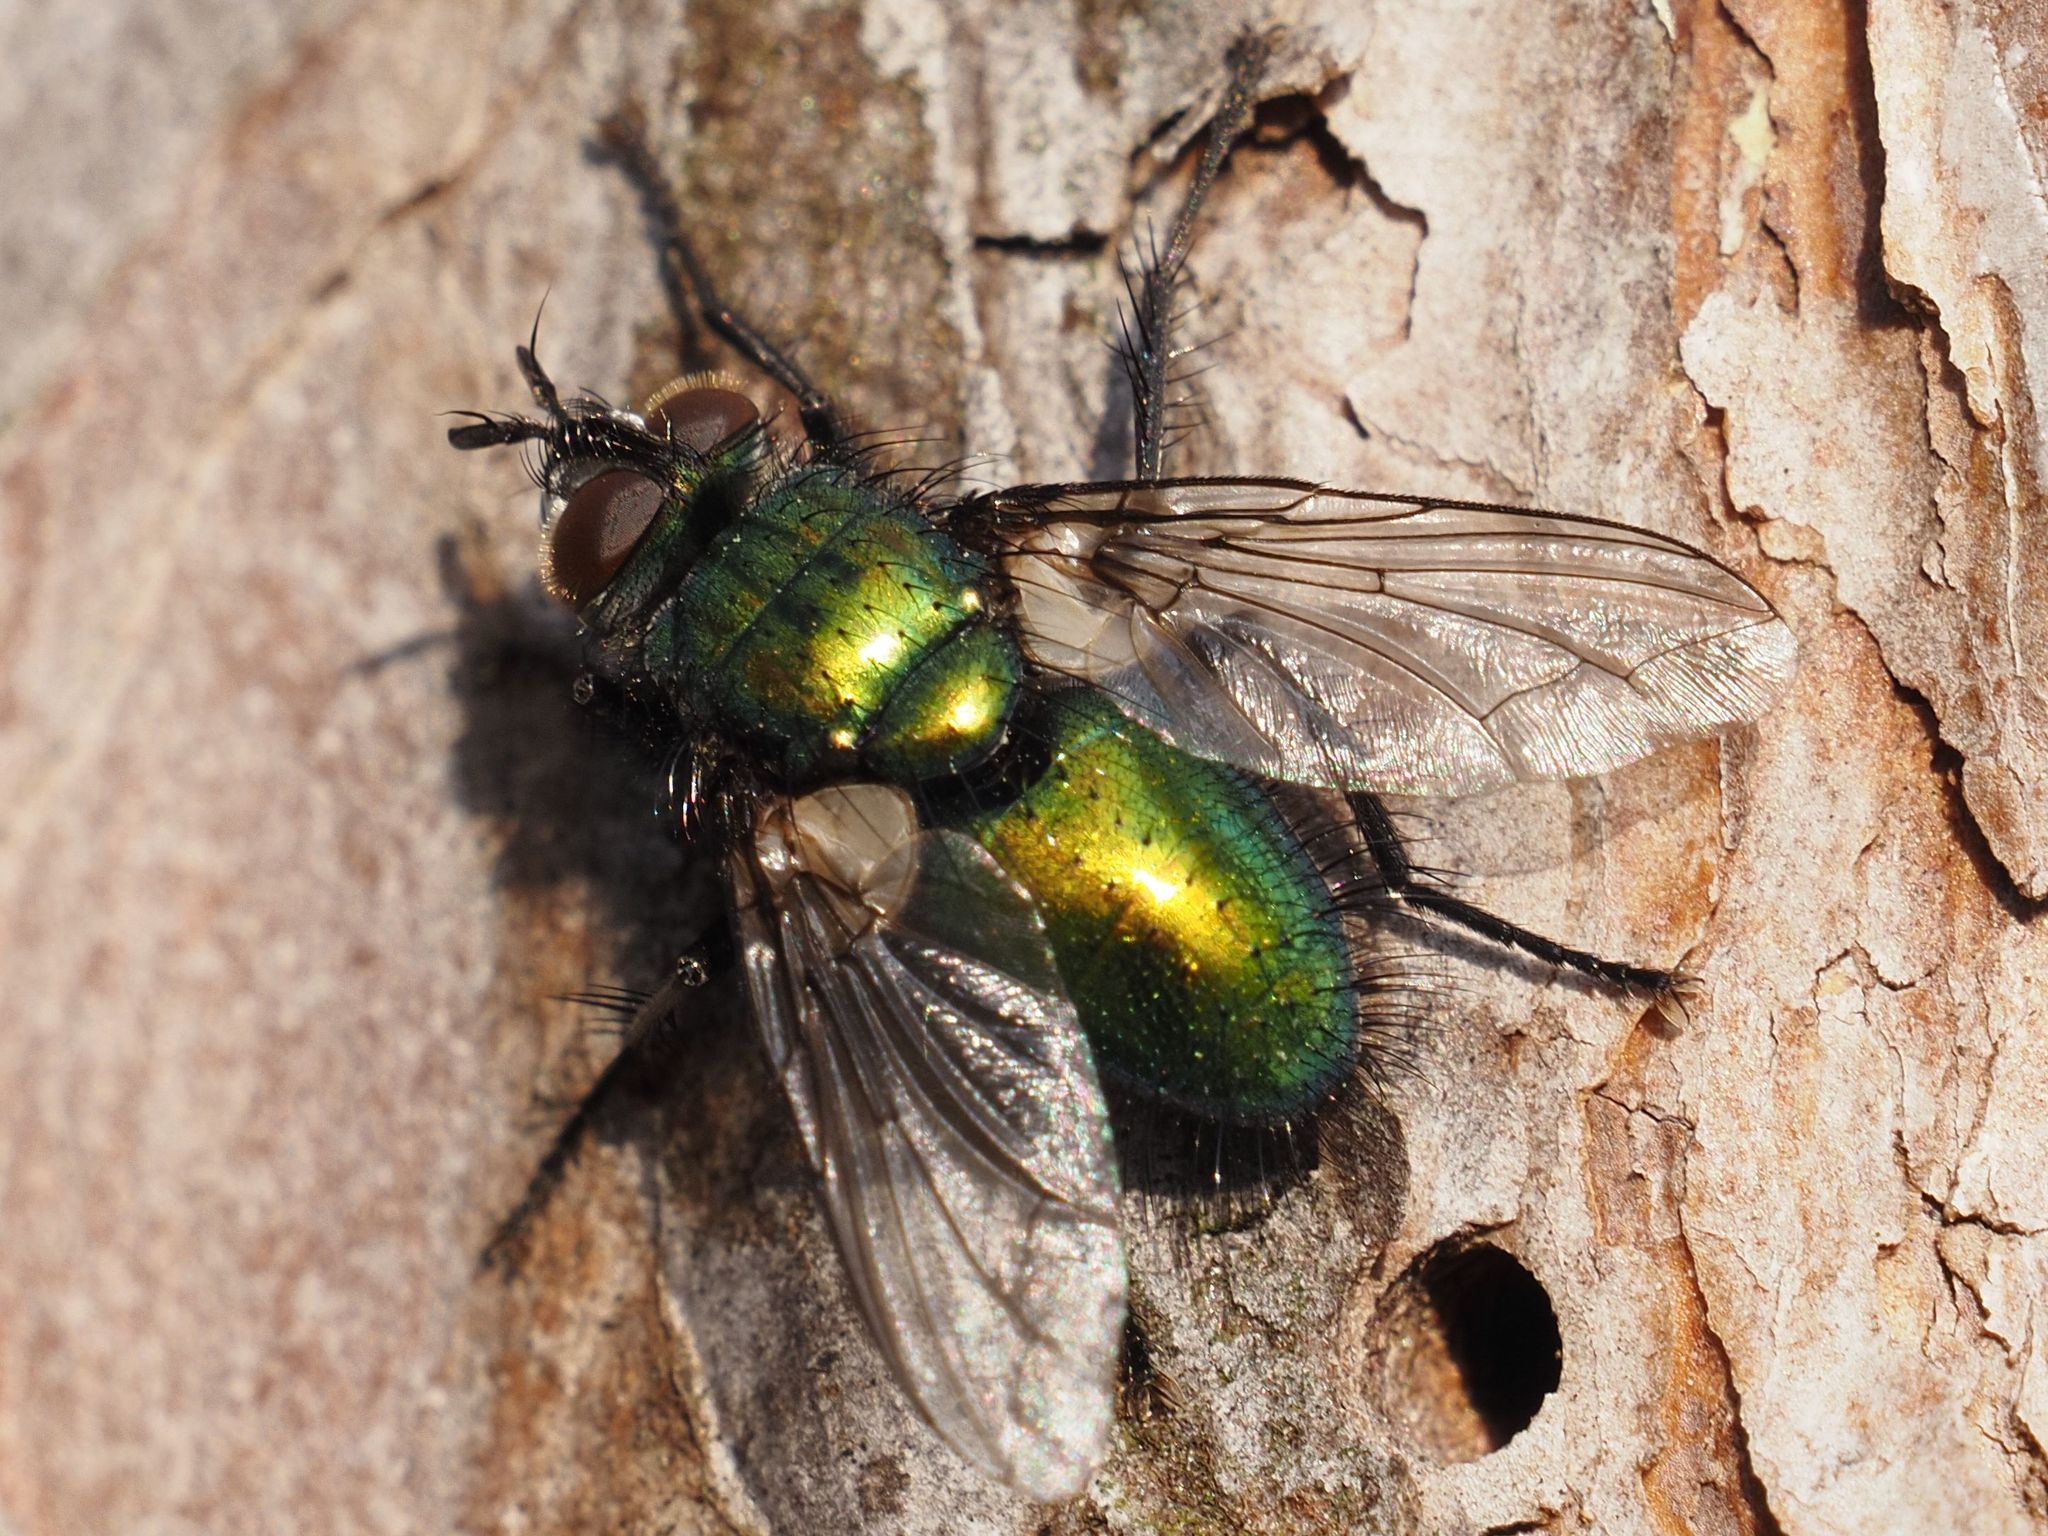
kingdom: Animalia
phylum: Arthropoda
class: Insecta
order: Diptera
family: Tachinidae
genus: Gymnocheta
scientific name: Gymnocheta viridis
